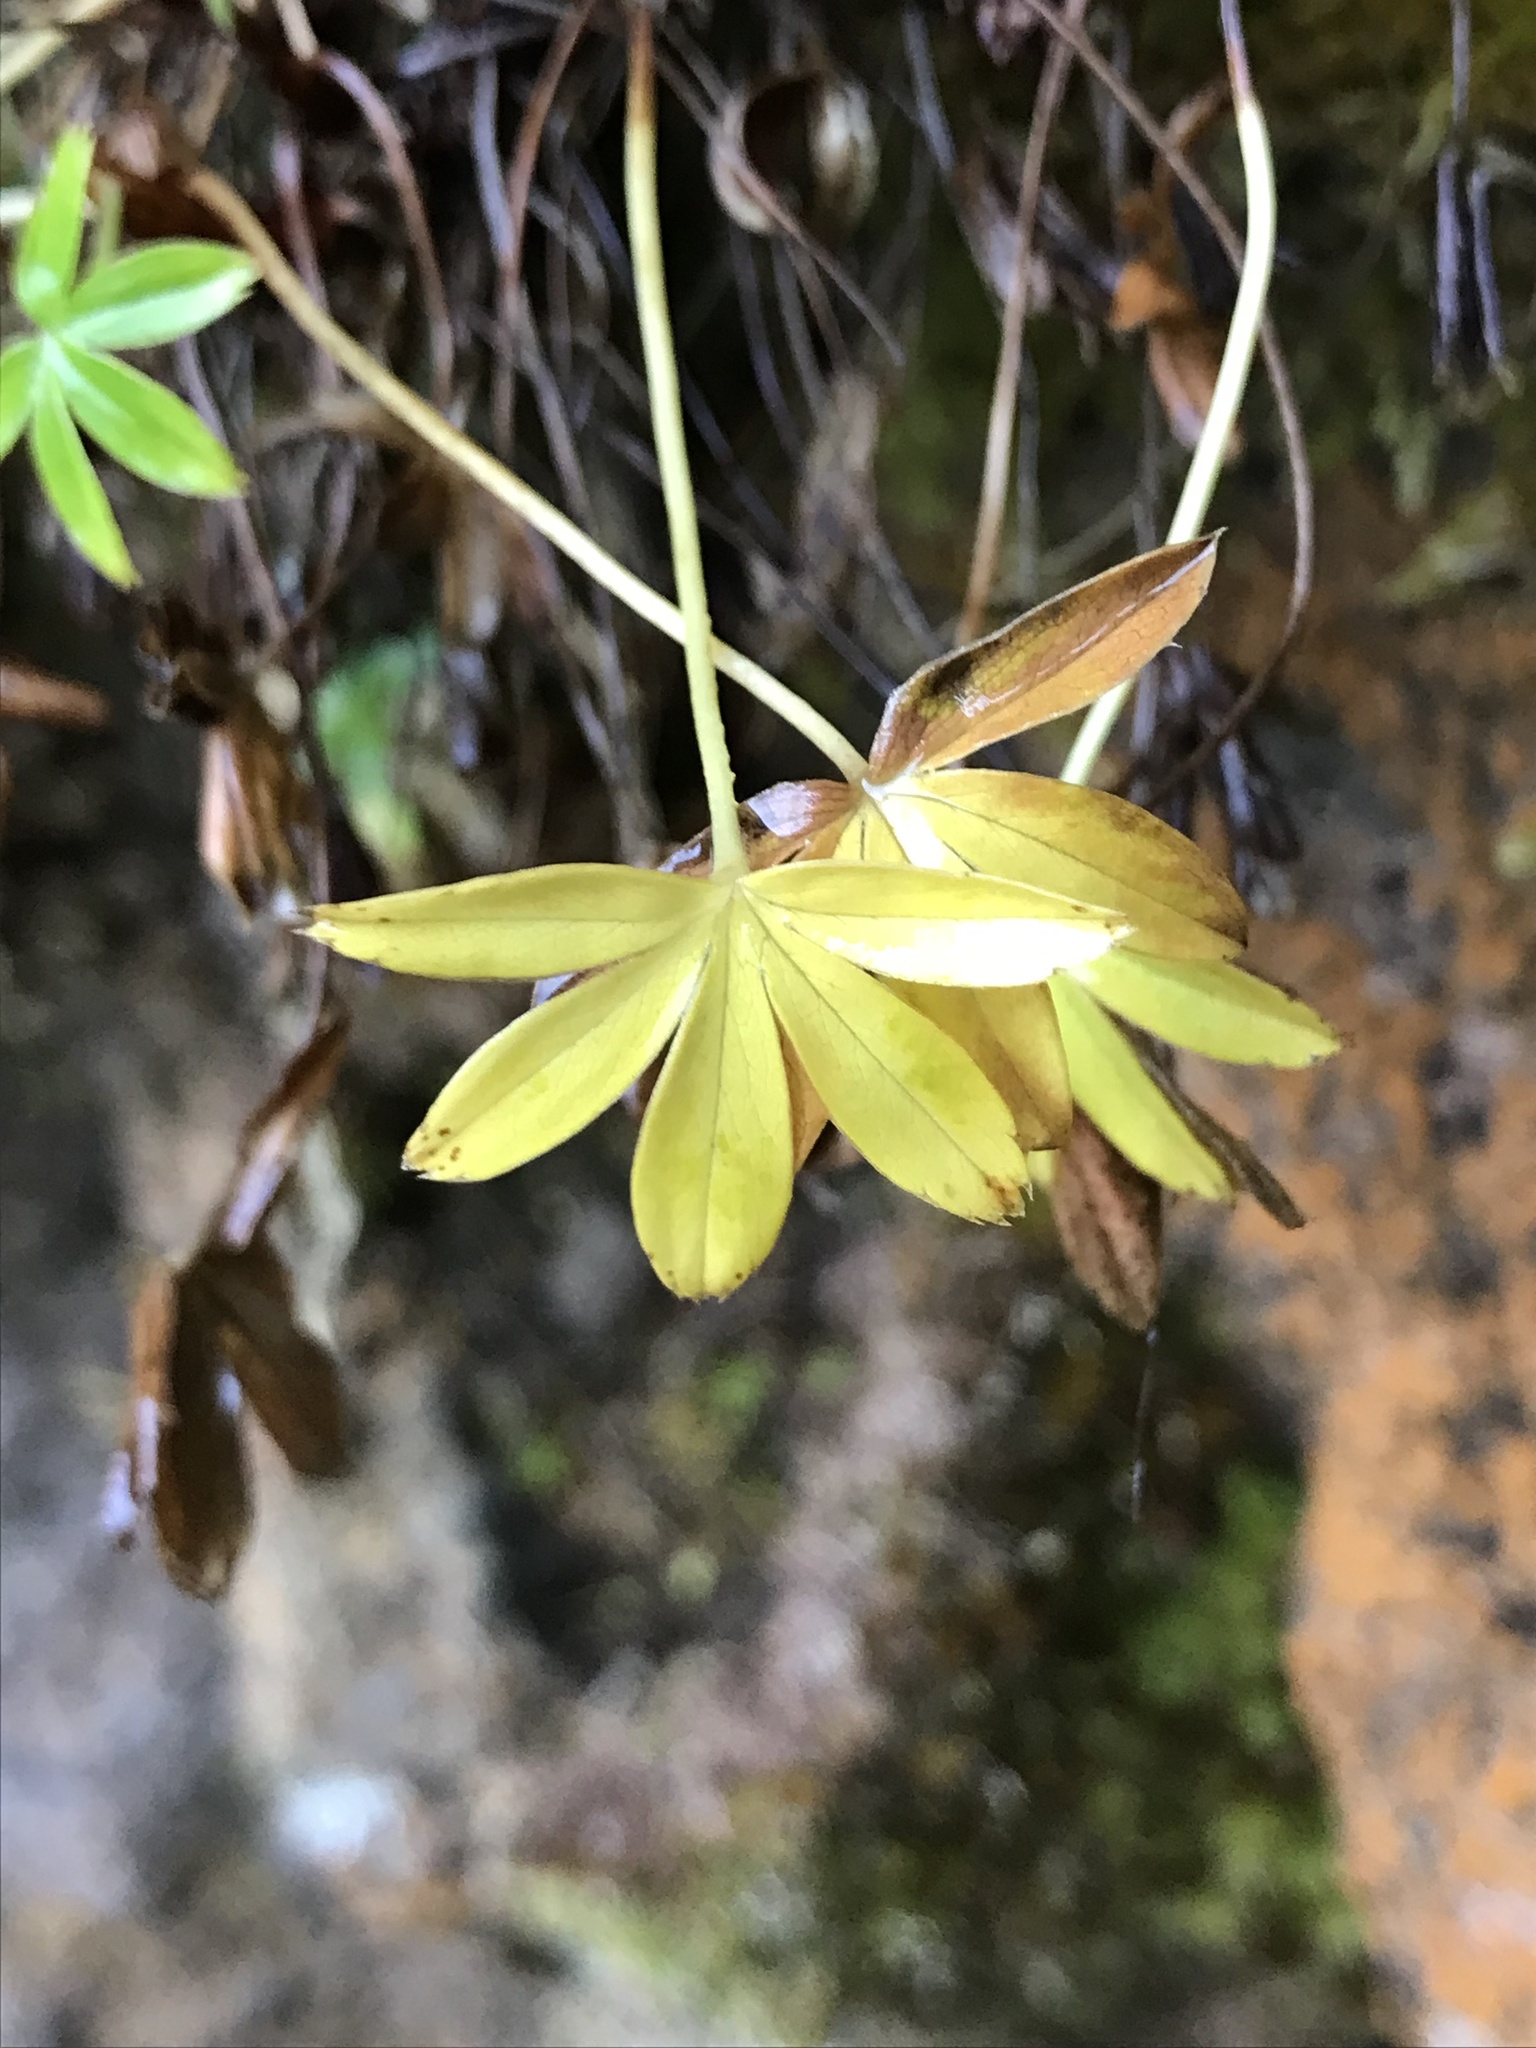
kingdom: Plantae
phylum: Tracheophyta
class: Magnoliopsida
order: Rosales
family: Rosaceae
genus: Alchemilla
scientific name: Alchemilla alpina
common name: Alpine lady's-mantle
